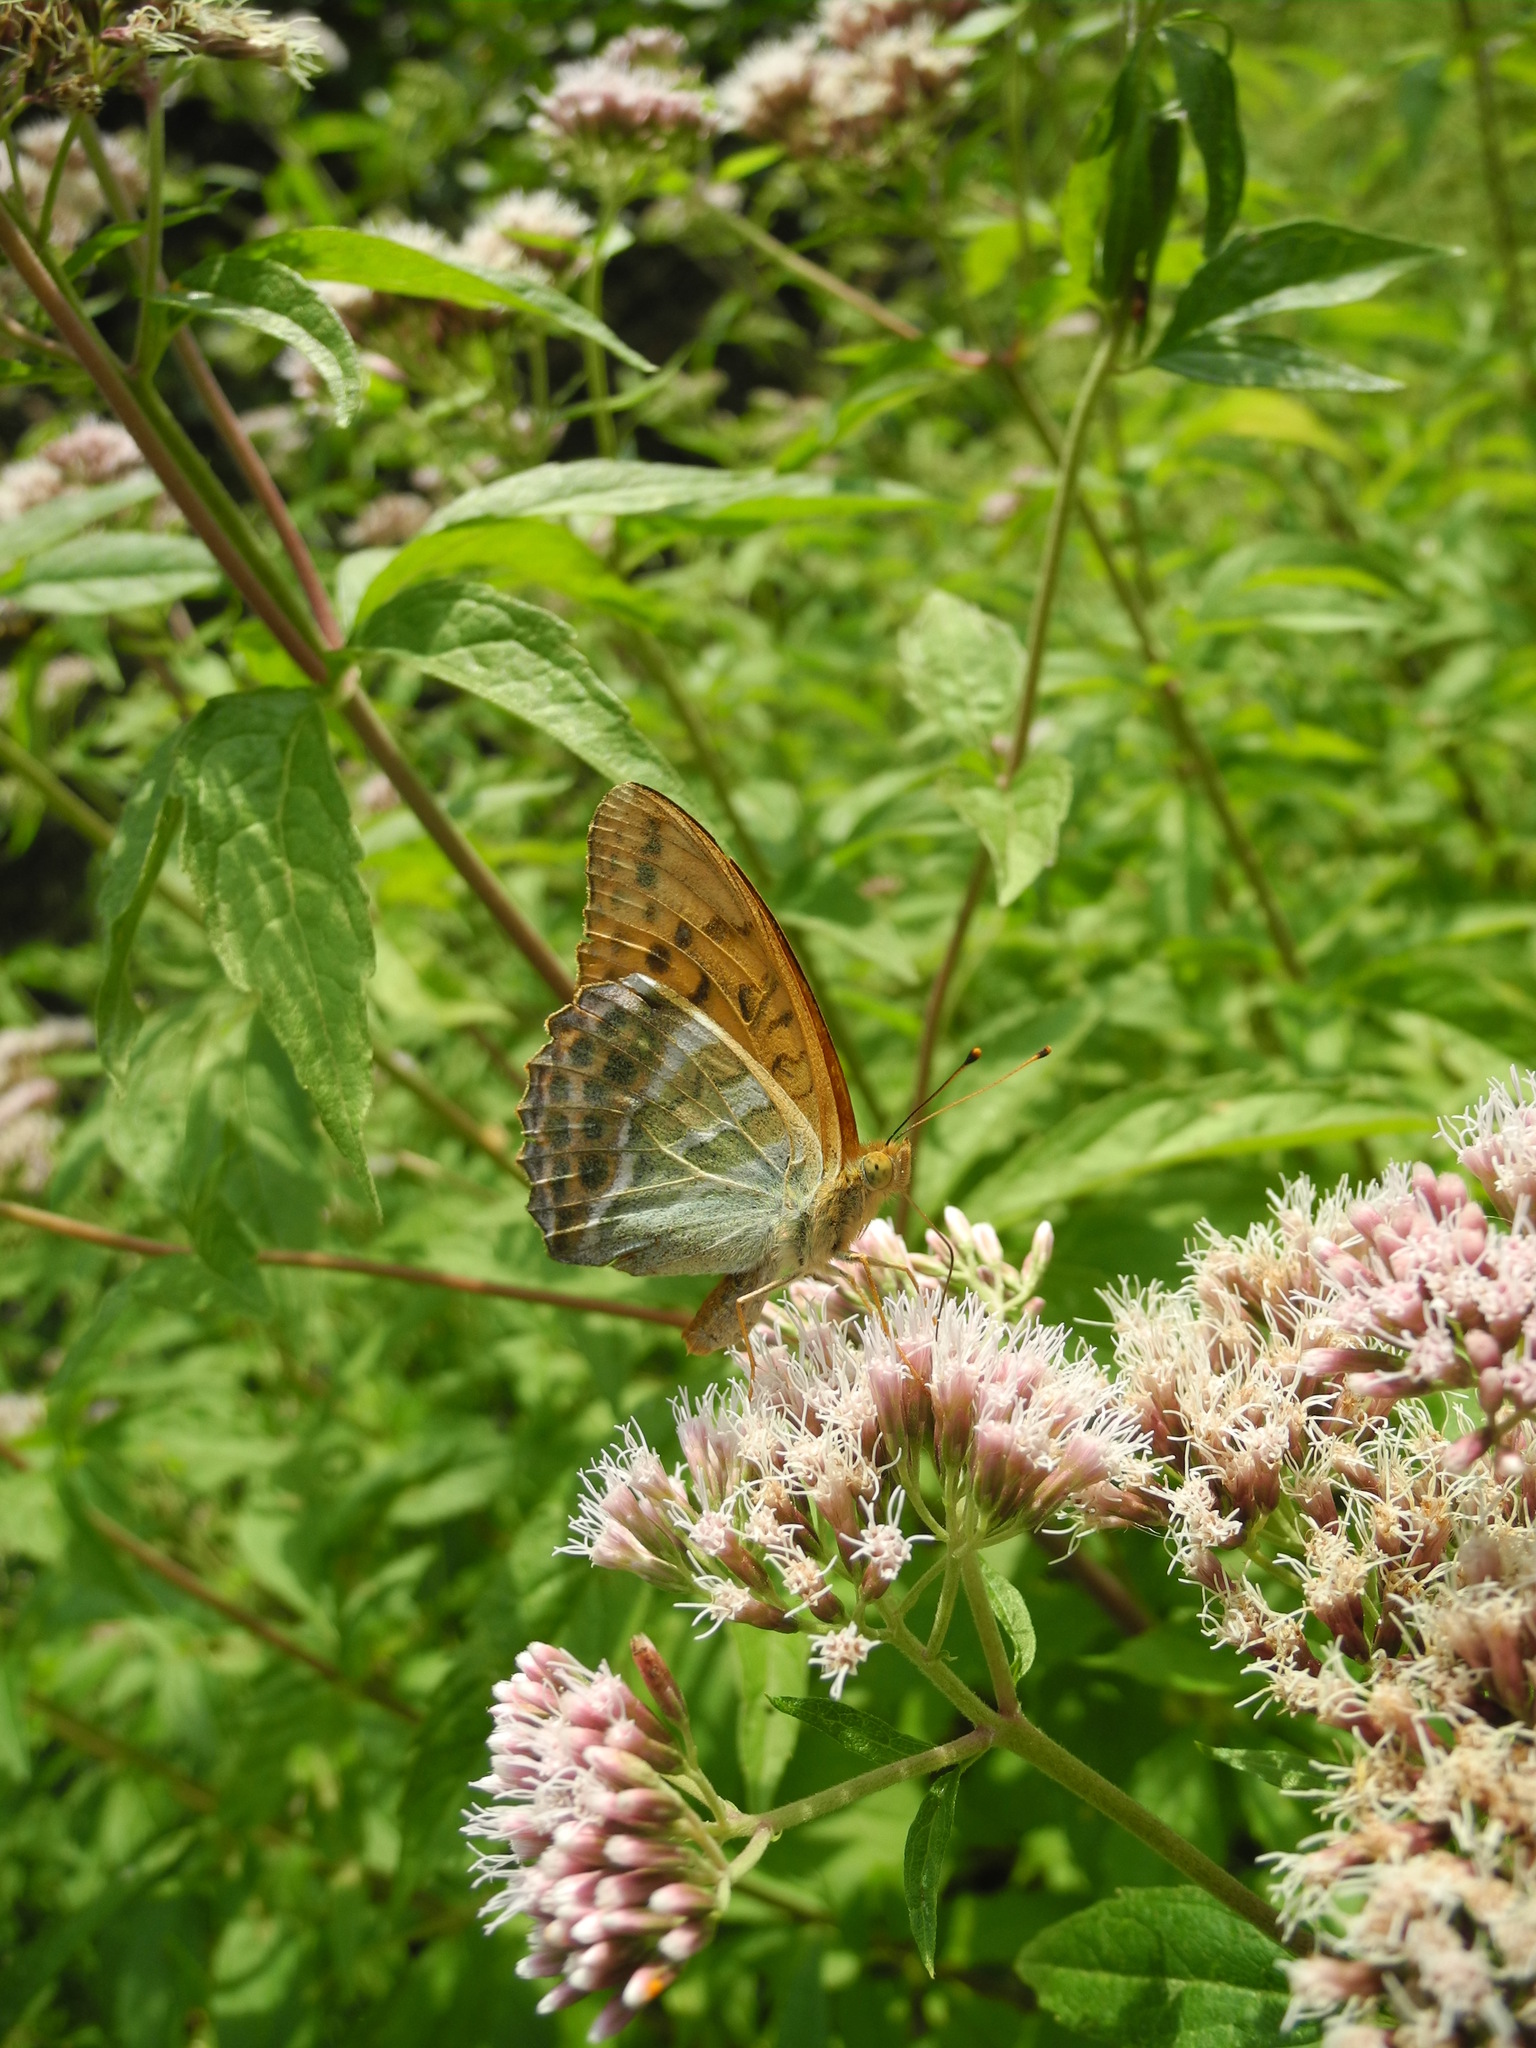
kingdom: Animalia
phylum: Arthropoda
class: Insecta
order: Lepidoptera
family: Nymphalidae
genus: Argynnis
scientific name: Argynnis paphia
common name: Silver-washed fritillary
